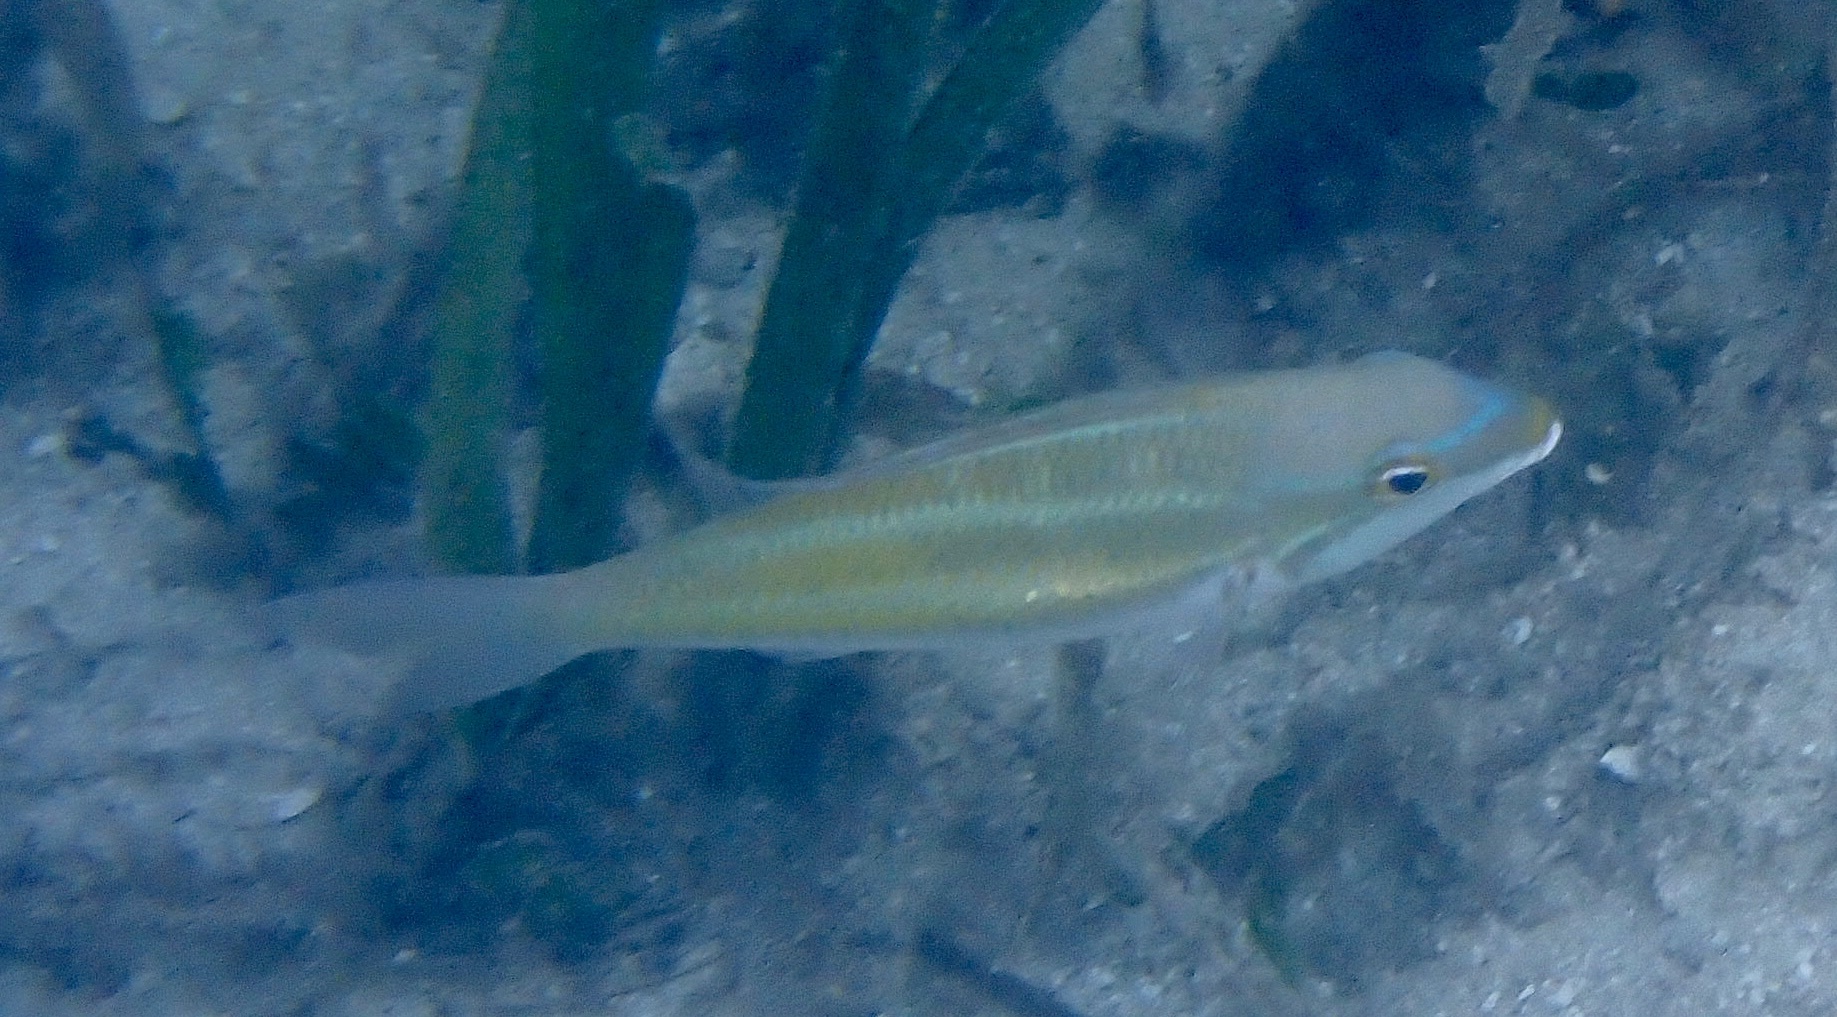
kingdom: Animalia
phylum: Chordata
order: Perciformes
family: Nemipteridae
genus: Pentapodus
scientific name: Pentapodus trivittatus
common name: Three-striped whiptail
